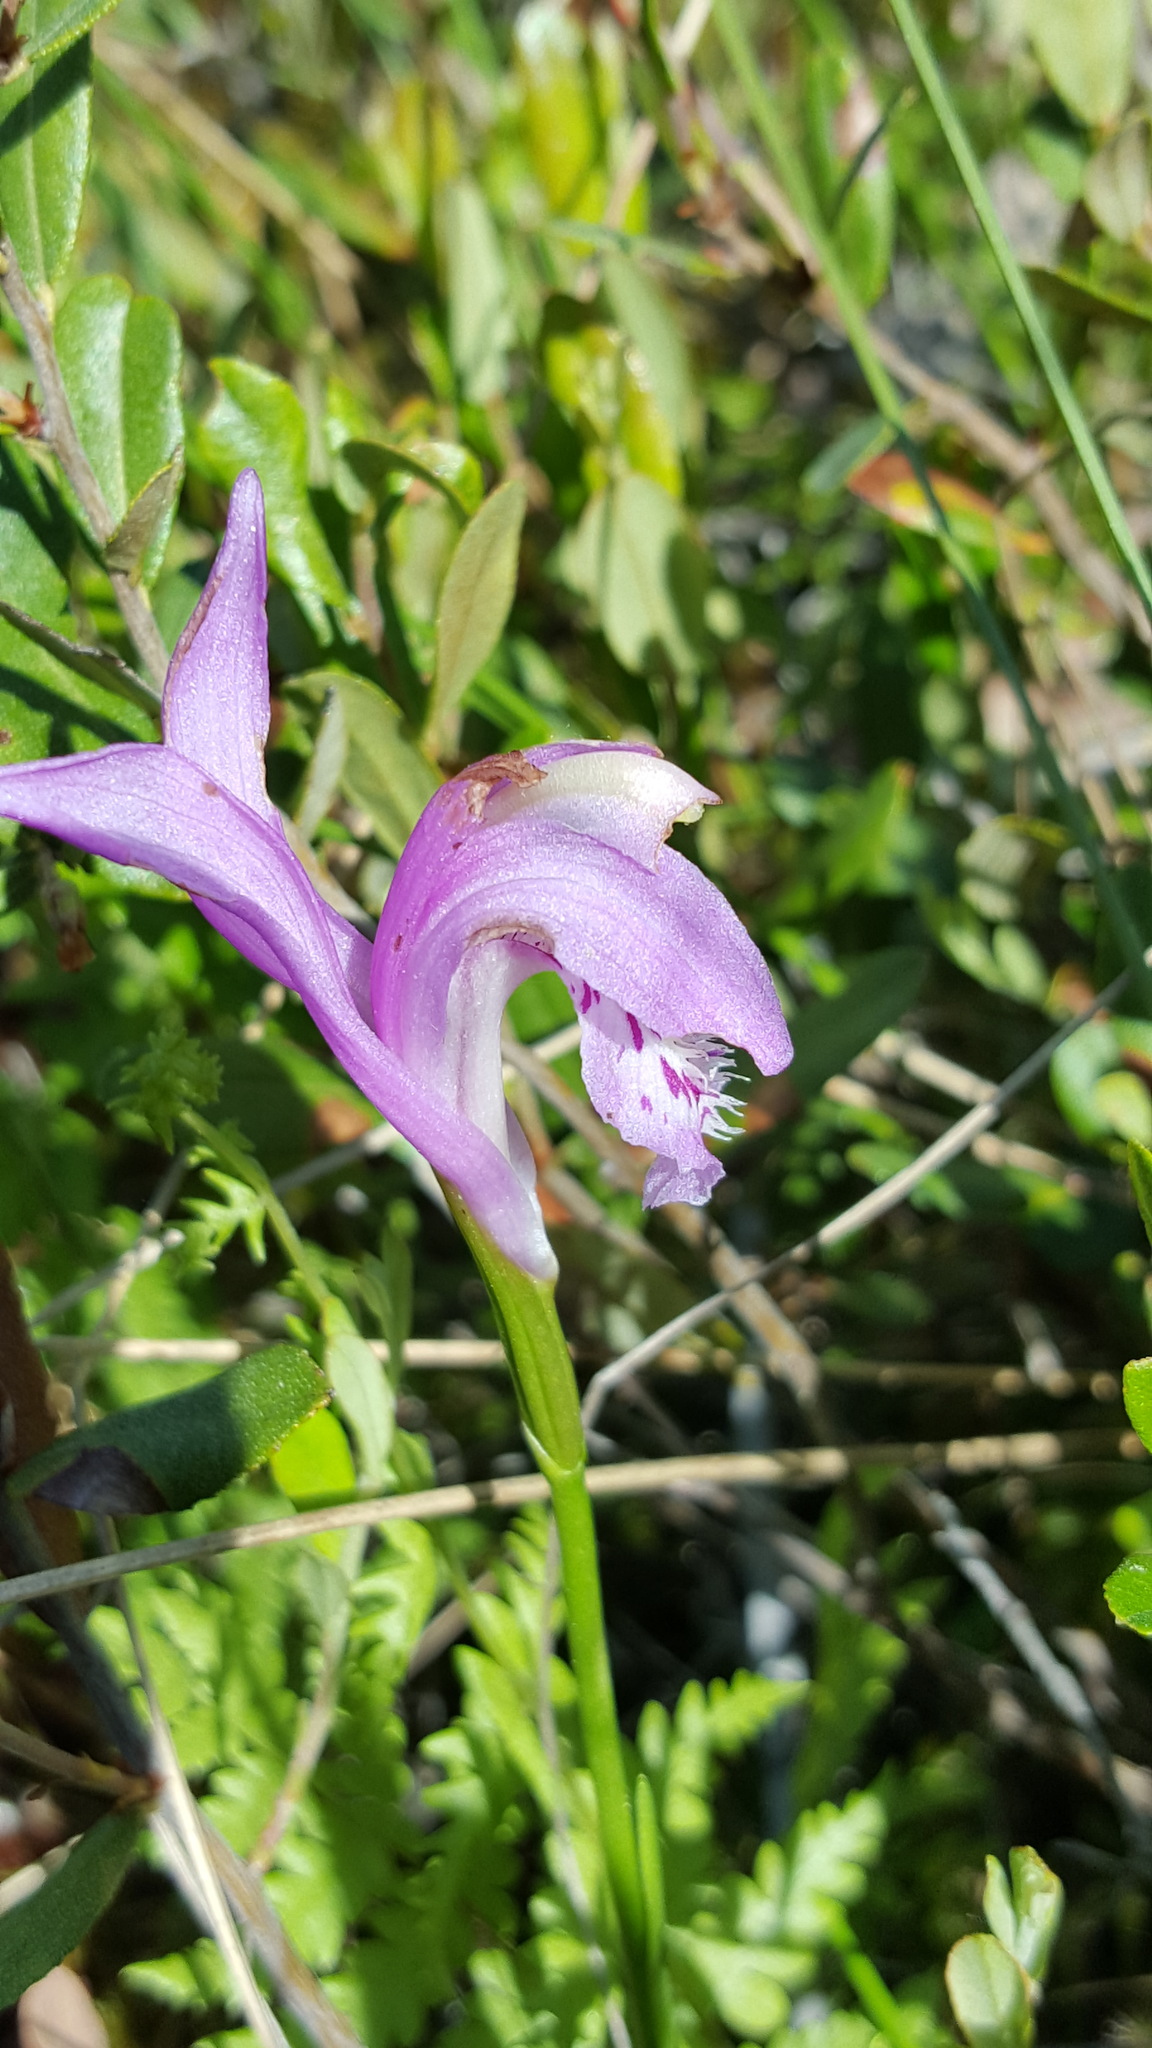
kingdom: Plantae
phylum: Tracheophyta
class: Liliopsida
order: Asparagales
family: Orchidaceae
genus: Arethusa
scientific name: Arethusa bulbosa
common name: Arethusa
